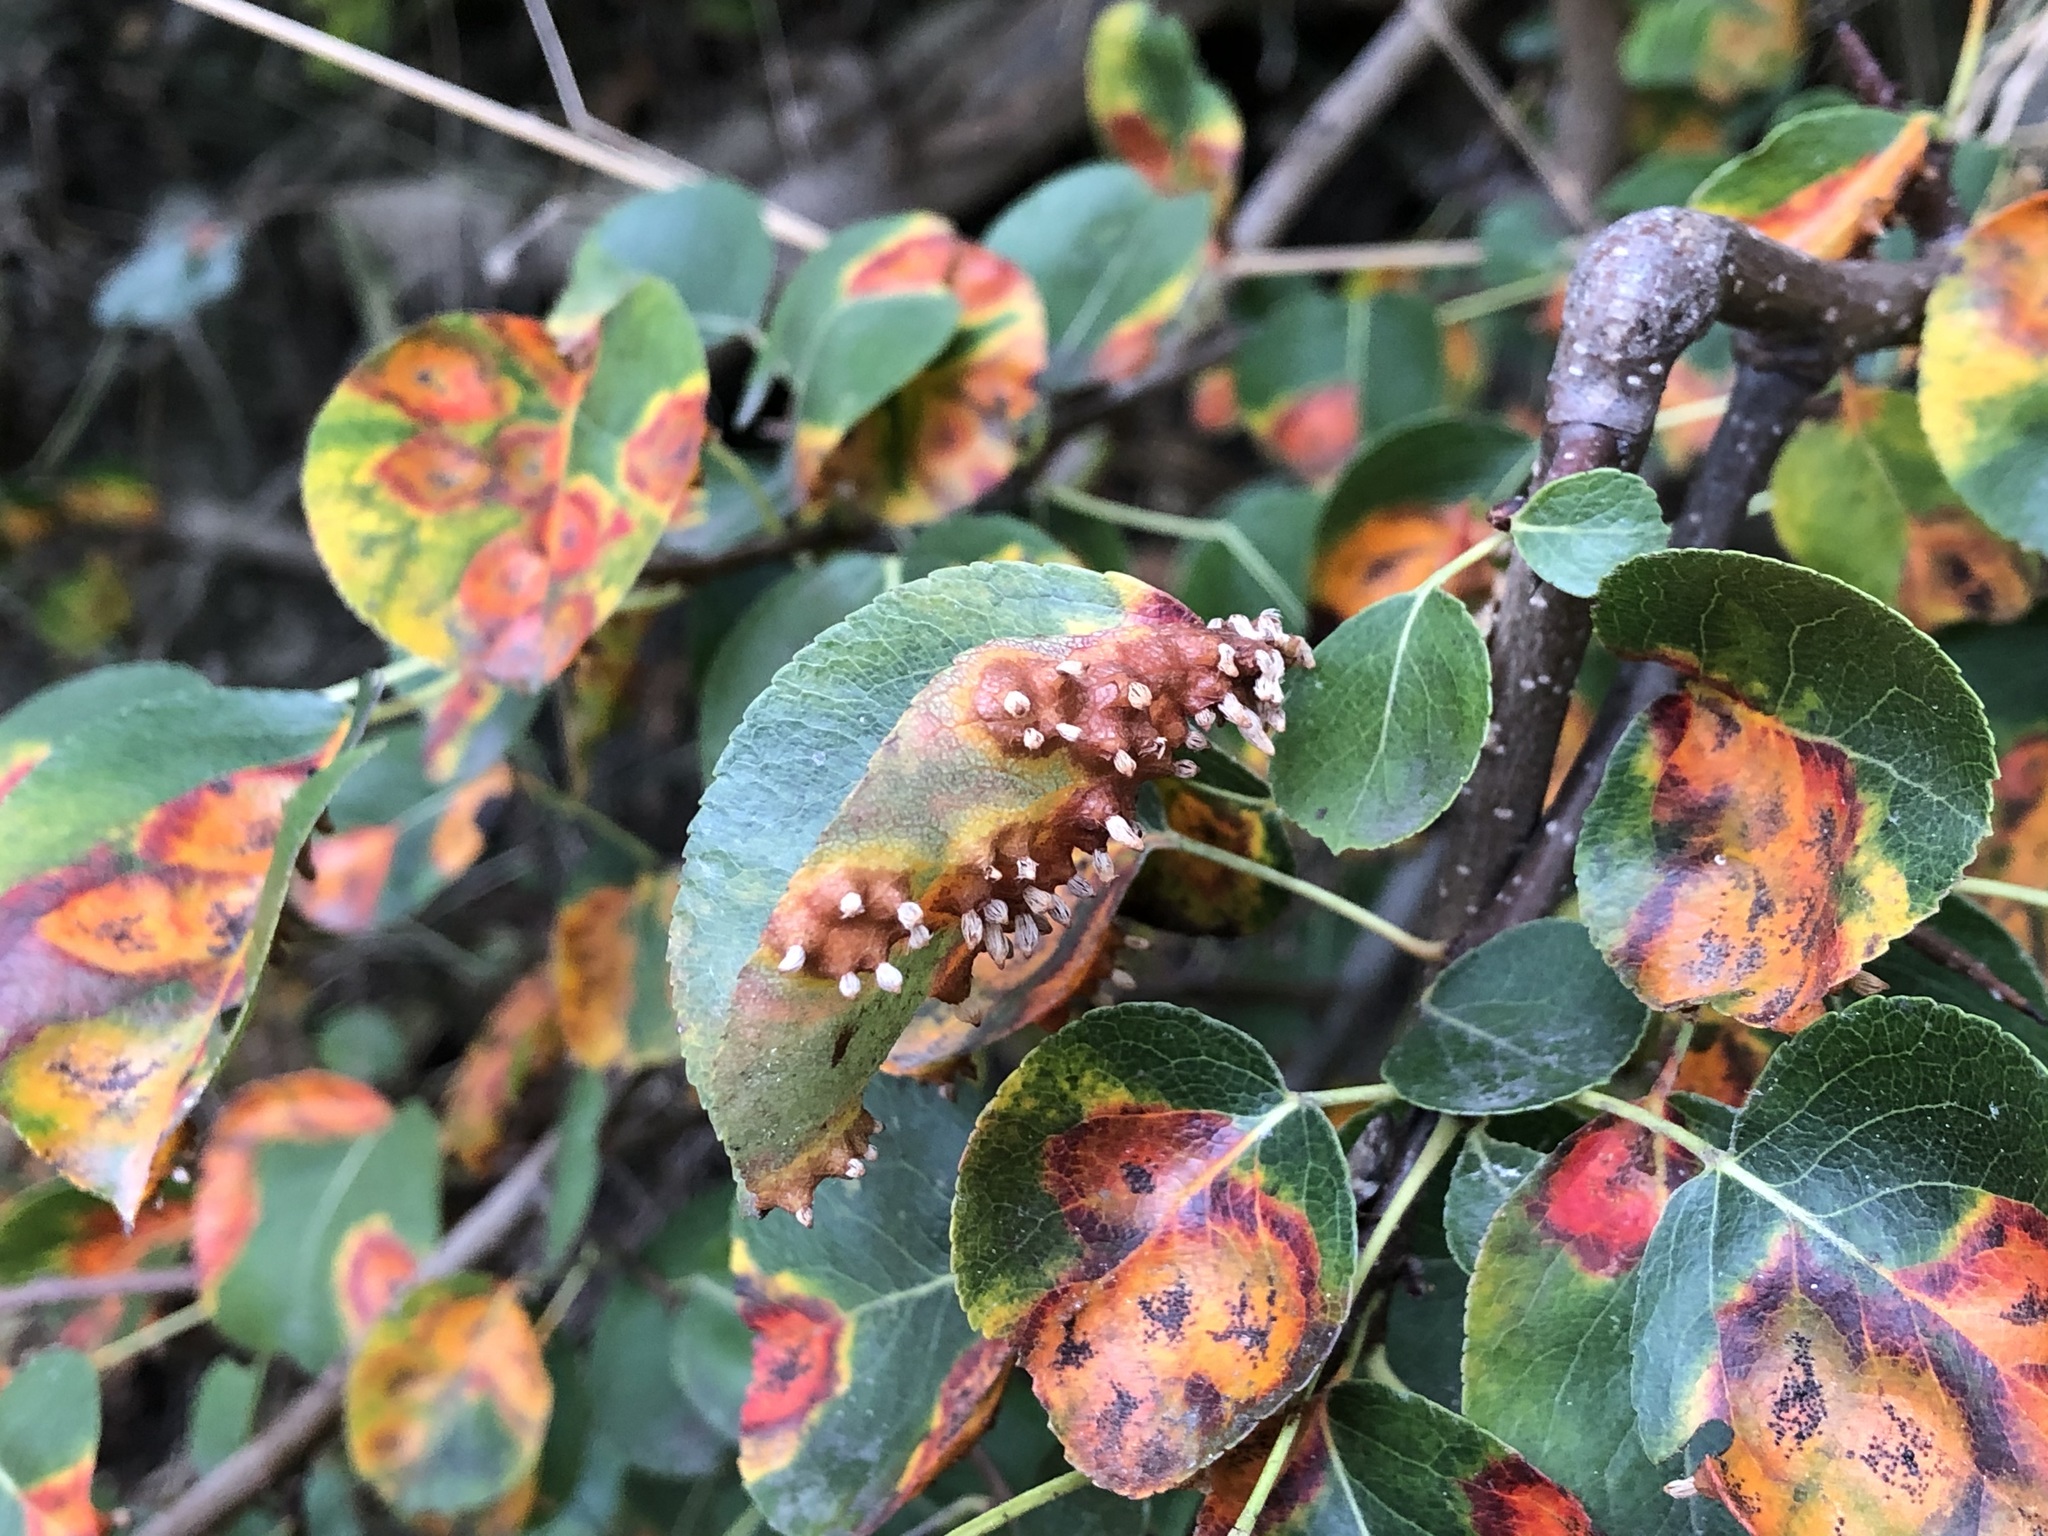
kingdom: Fungi
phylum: Basidiomycota
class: Pucciniomycetes
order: Pucciniales
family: Gymnosporangiaceae
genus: Gymnosporangium
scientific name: Gymnosporangium sabinae
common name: Pear trellis rust fungus
